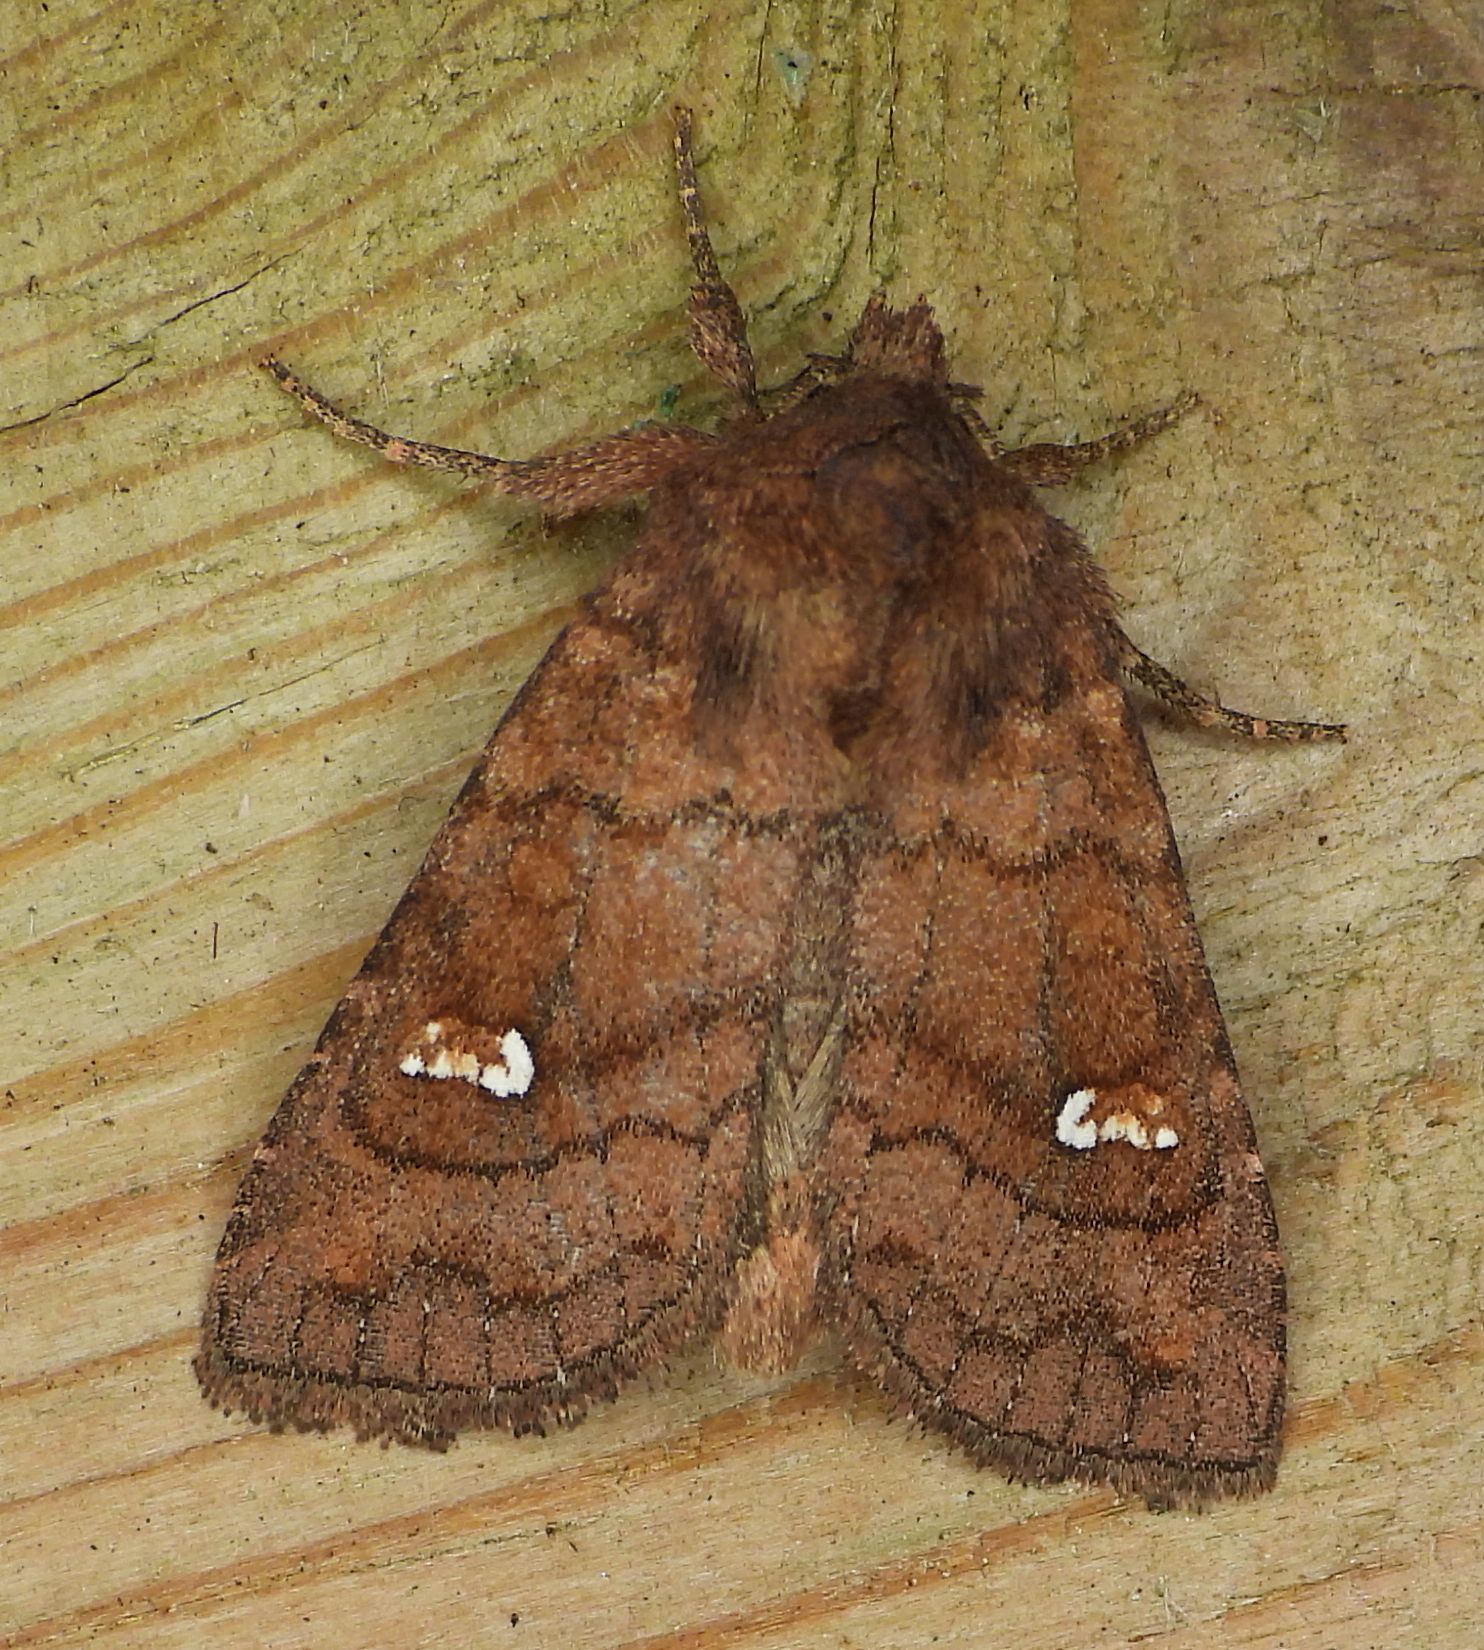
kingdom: Animalia
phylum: Arthropoda
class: Insecta
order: Lepidoptera
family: Noctuidae
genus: Tricholita
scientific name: Tricholita signata
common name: Signate quaker
